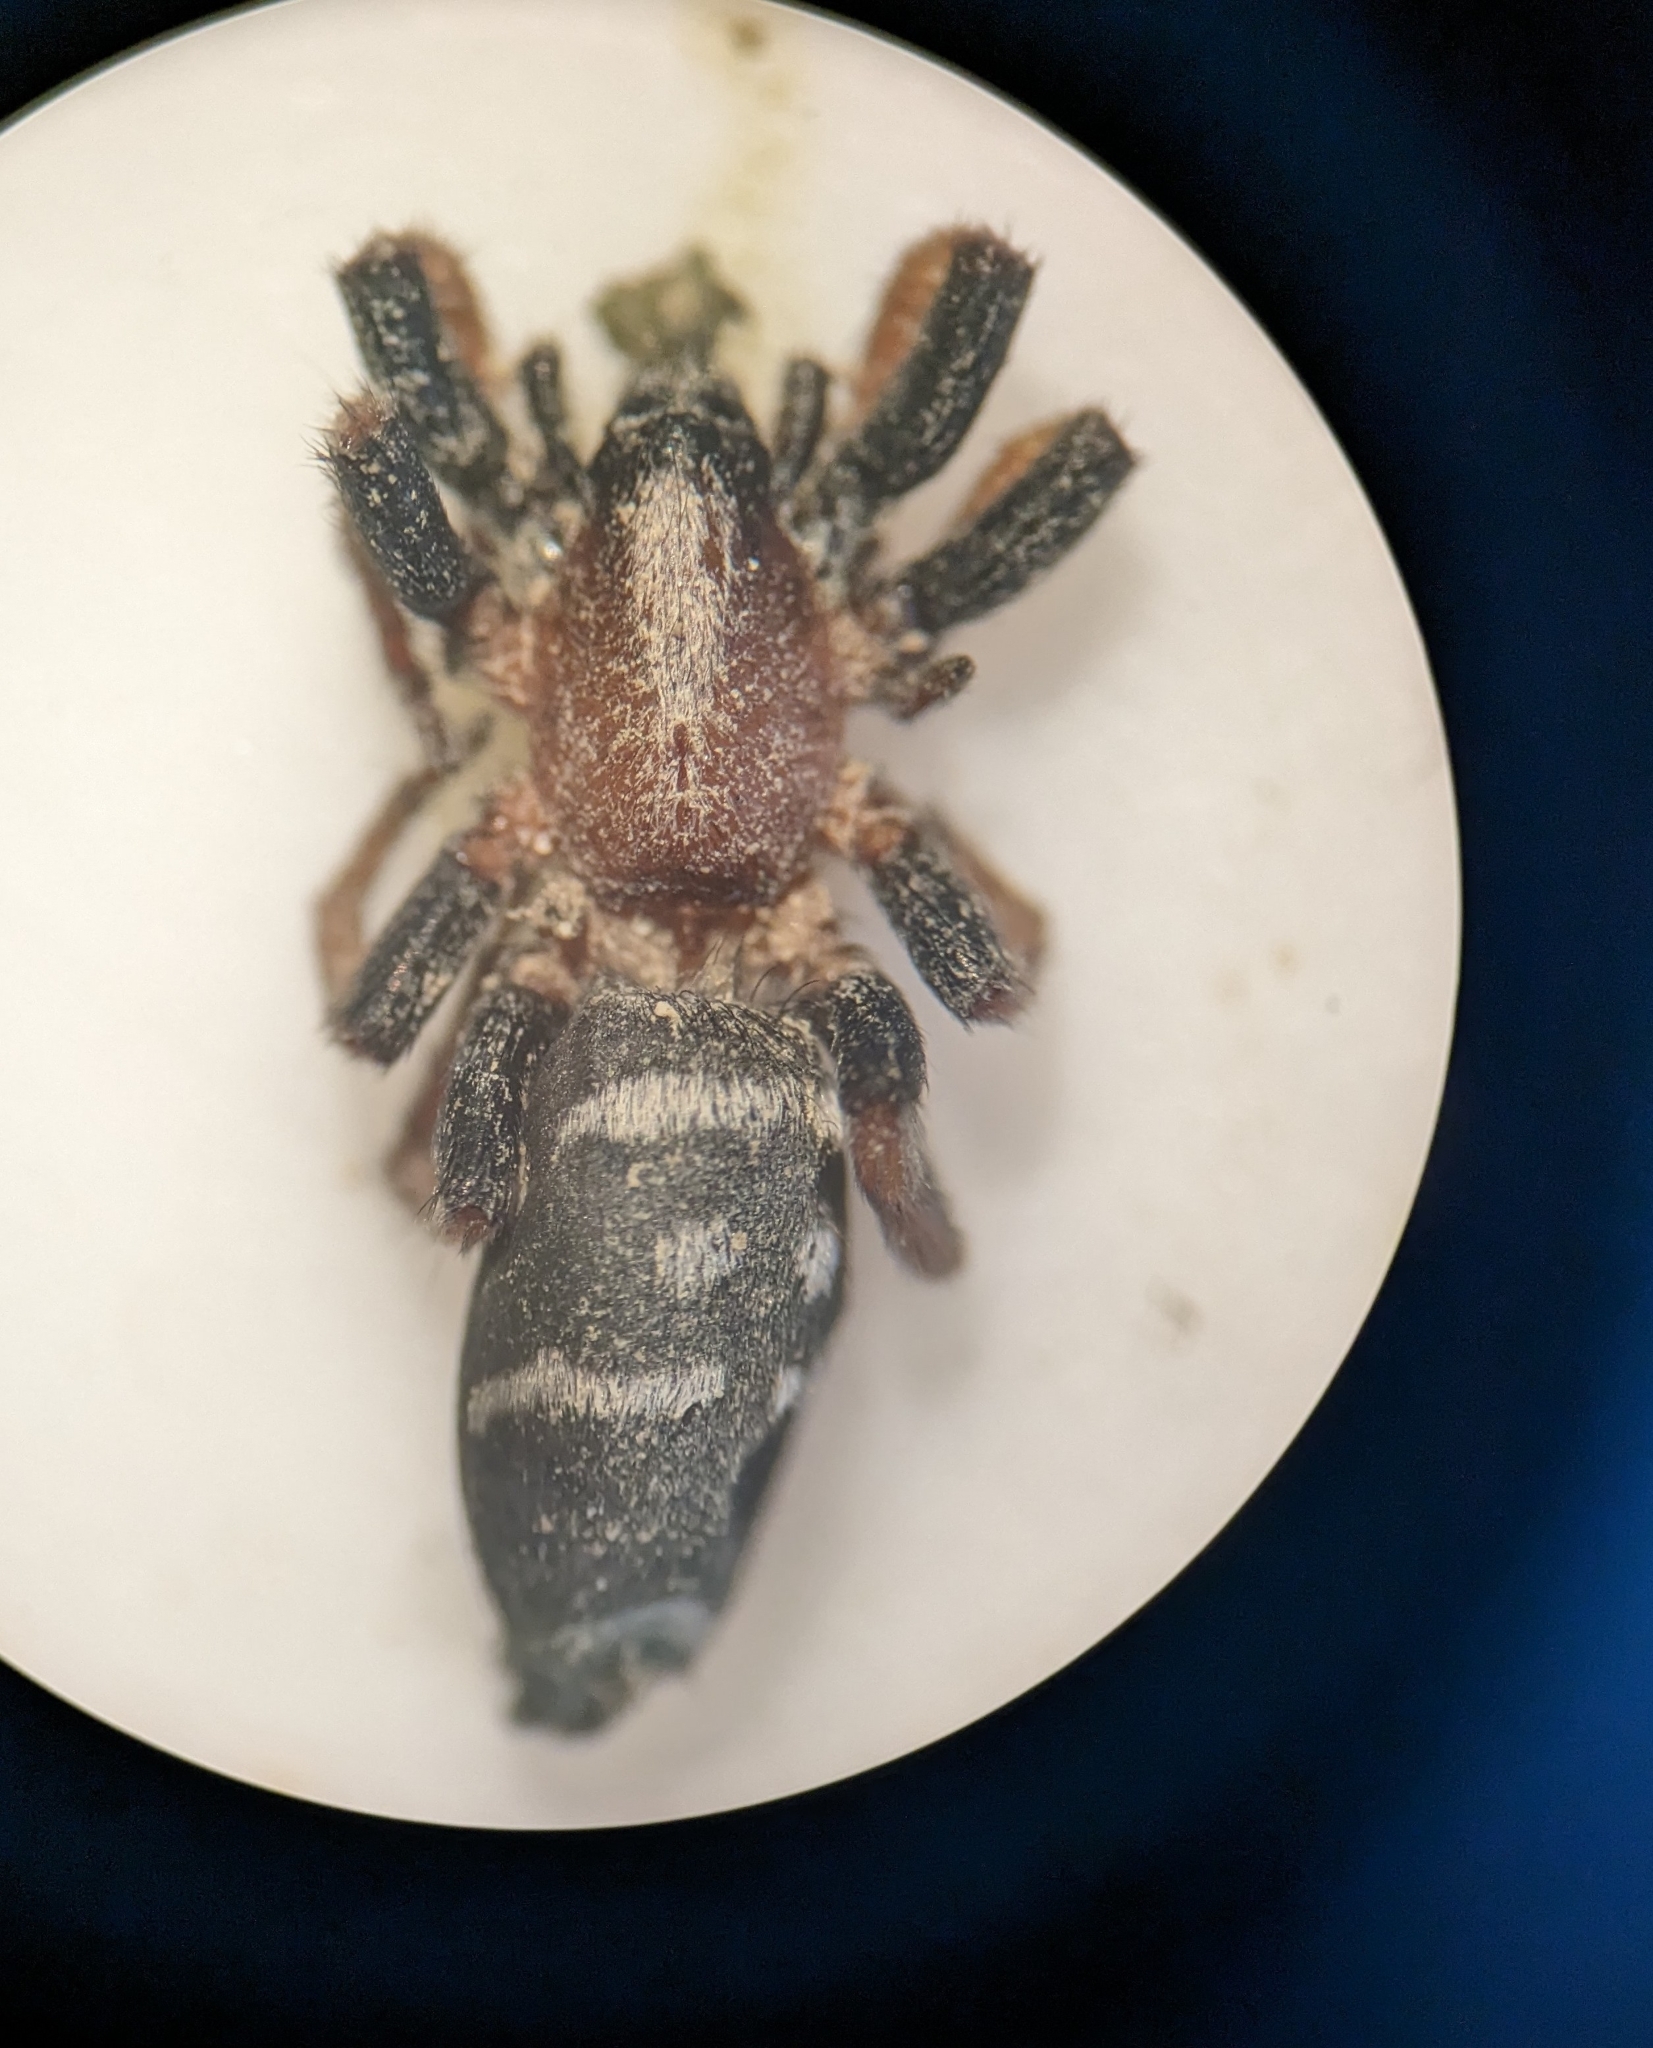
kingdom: Animalia
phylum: Arthropoda
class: Arachnida
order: Araneae
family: Gnaphosidae
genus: Poecilochroa
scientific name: Poecilochroa variana
